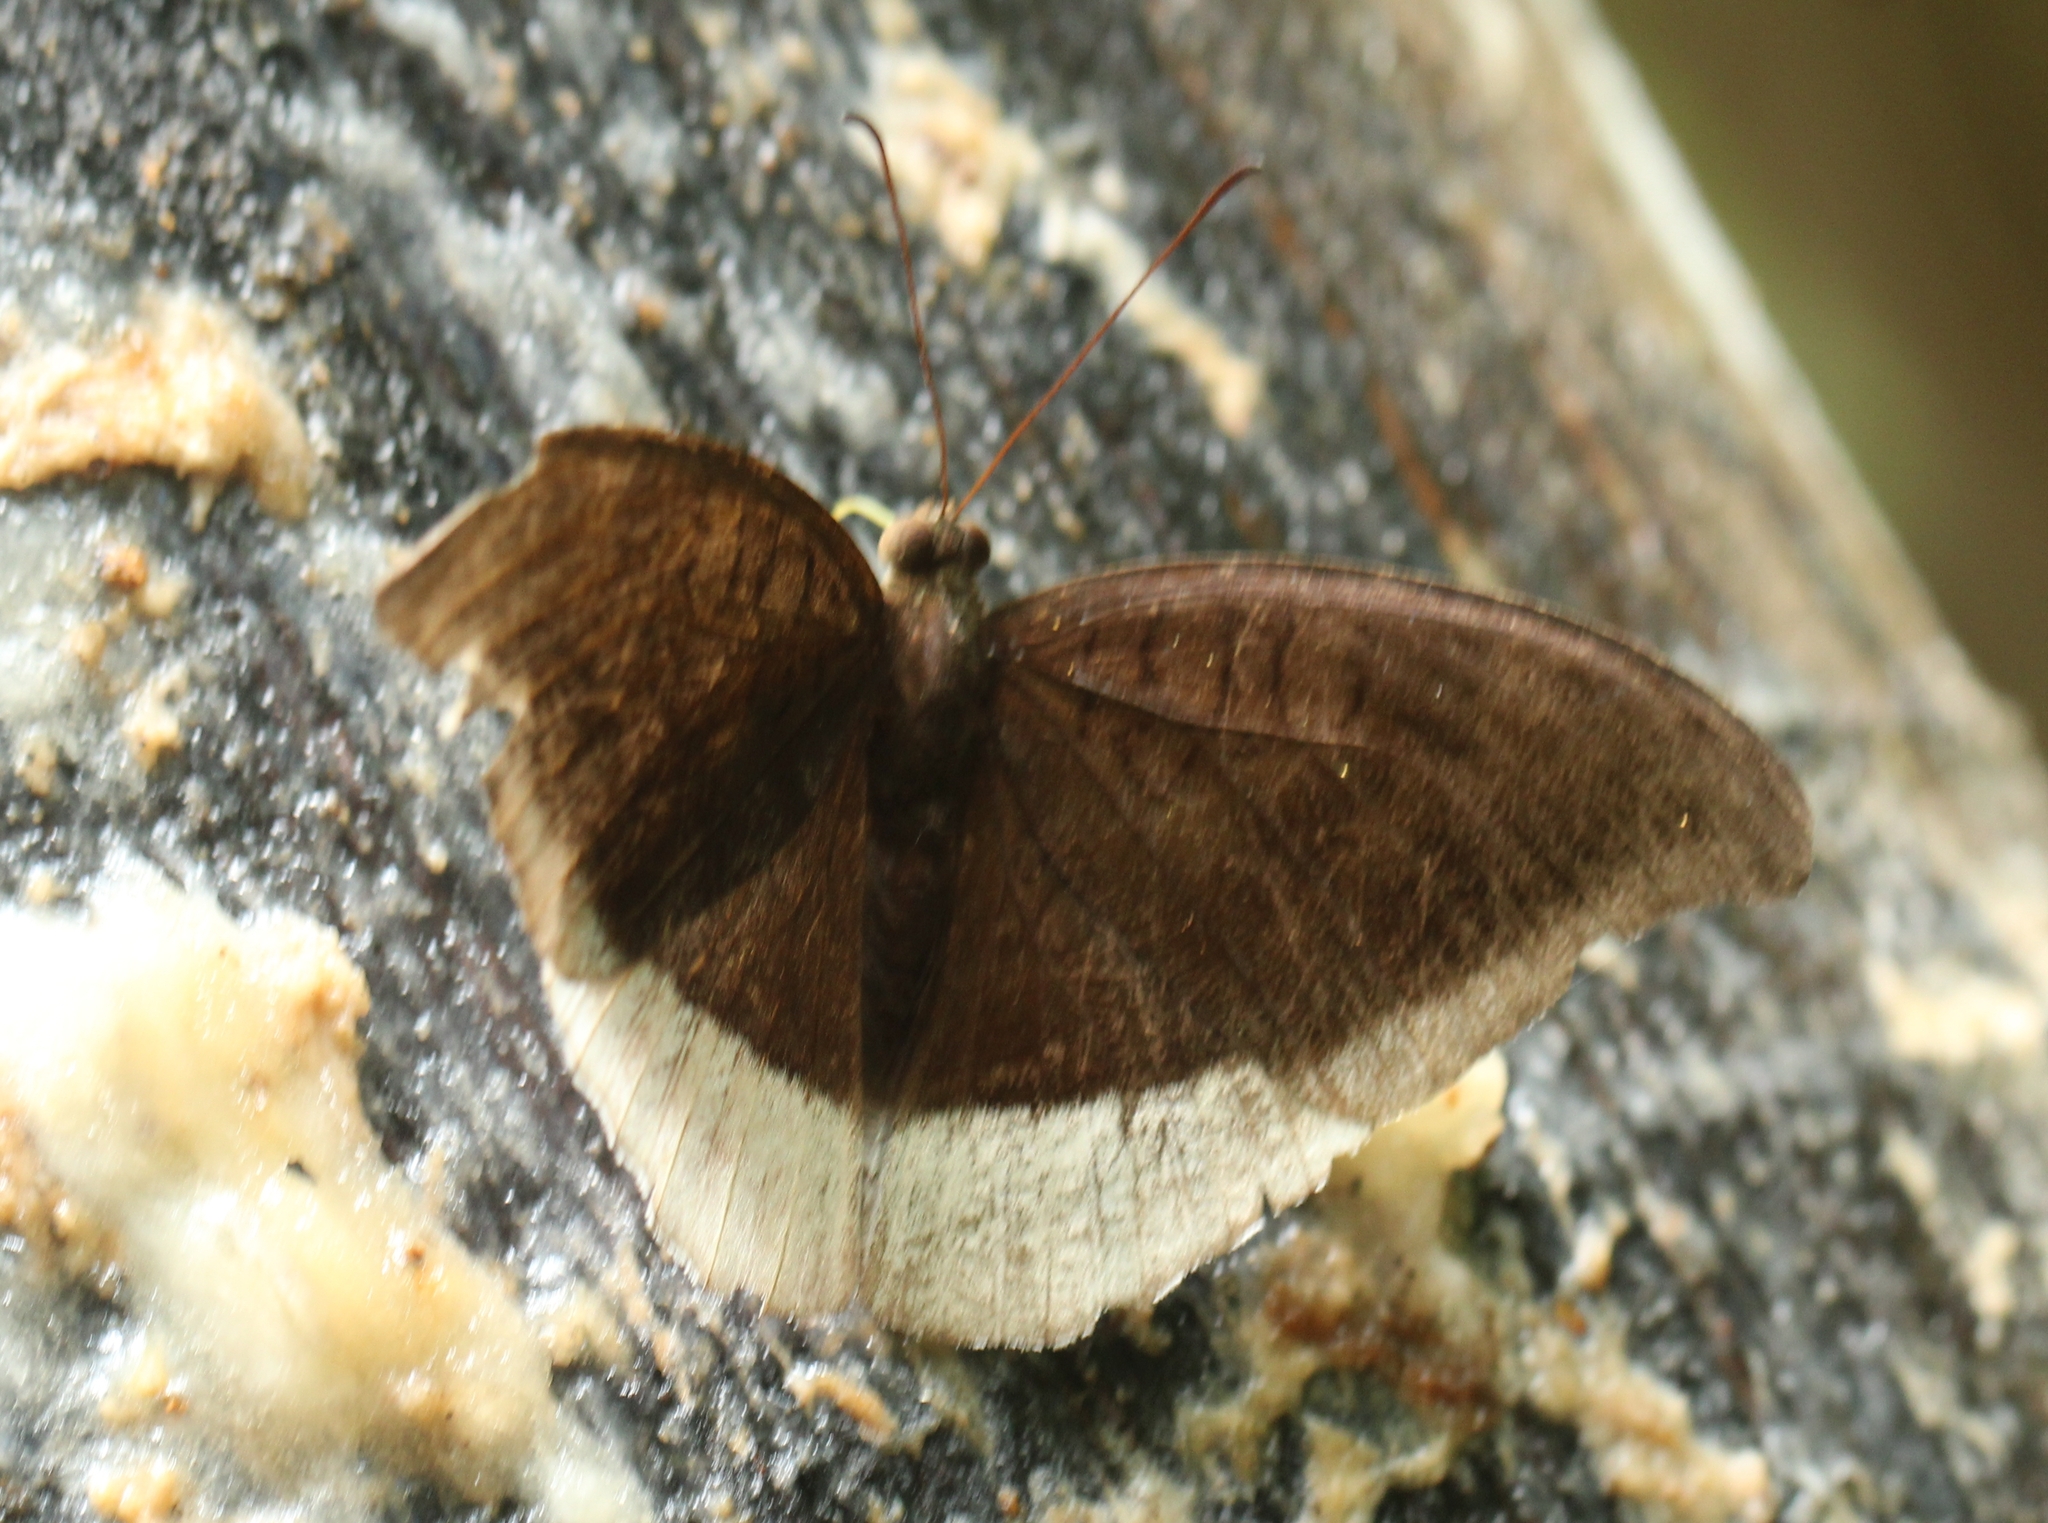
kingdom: Animalia
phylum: Arthropoda
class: Insecta
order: Lepidoptera
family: Nymphalidae
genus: Tanaecia
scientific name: Tanaecia lepidea
